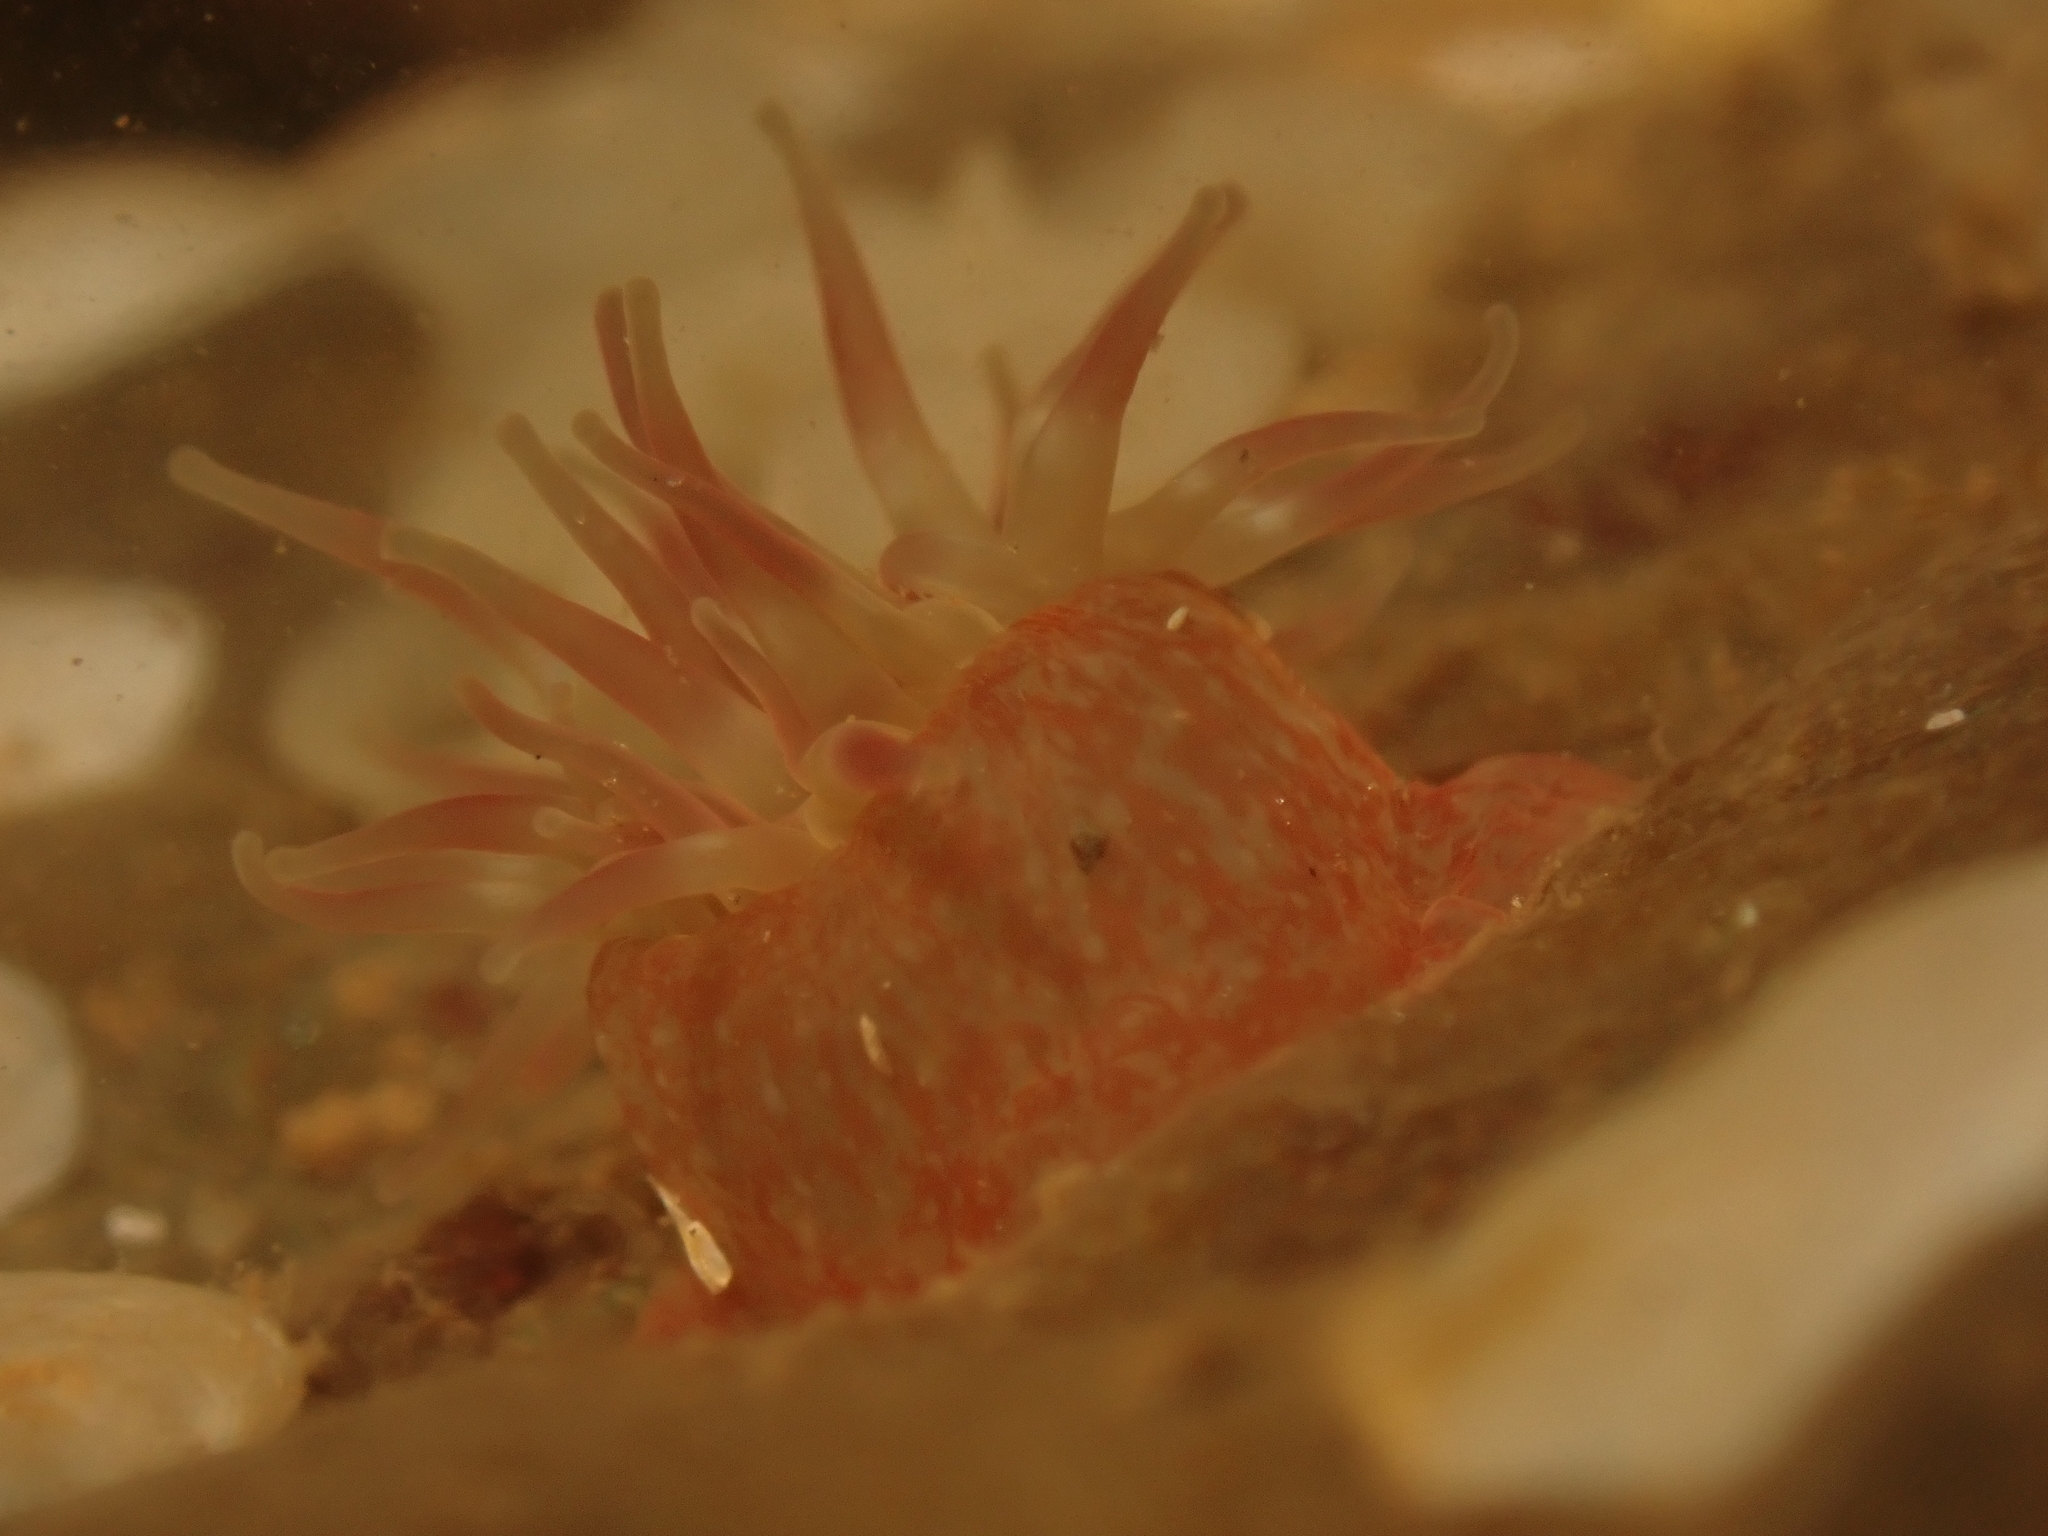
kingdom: Animalia
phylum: Cnidaria
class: Anthozoa
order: Actiniaria
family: Actiniidae
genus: Urticina
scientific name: Urticina crassicornis
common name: Mottled anemone
